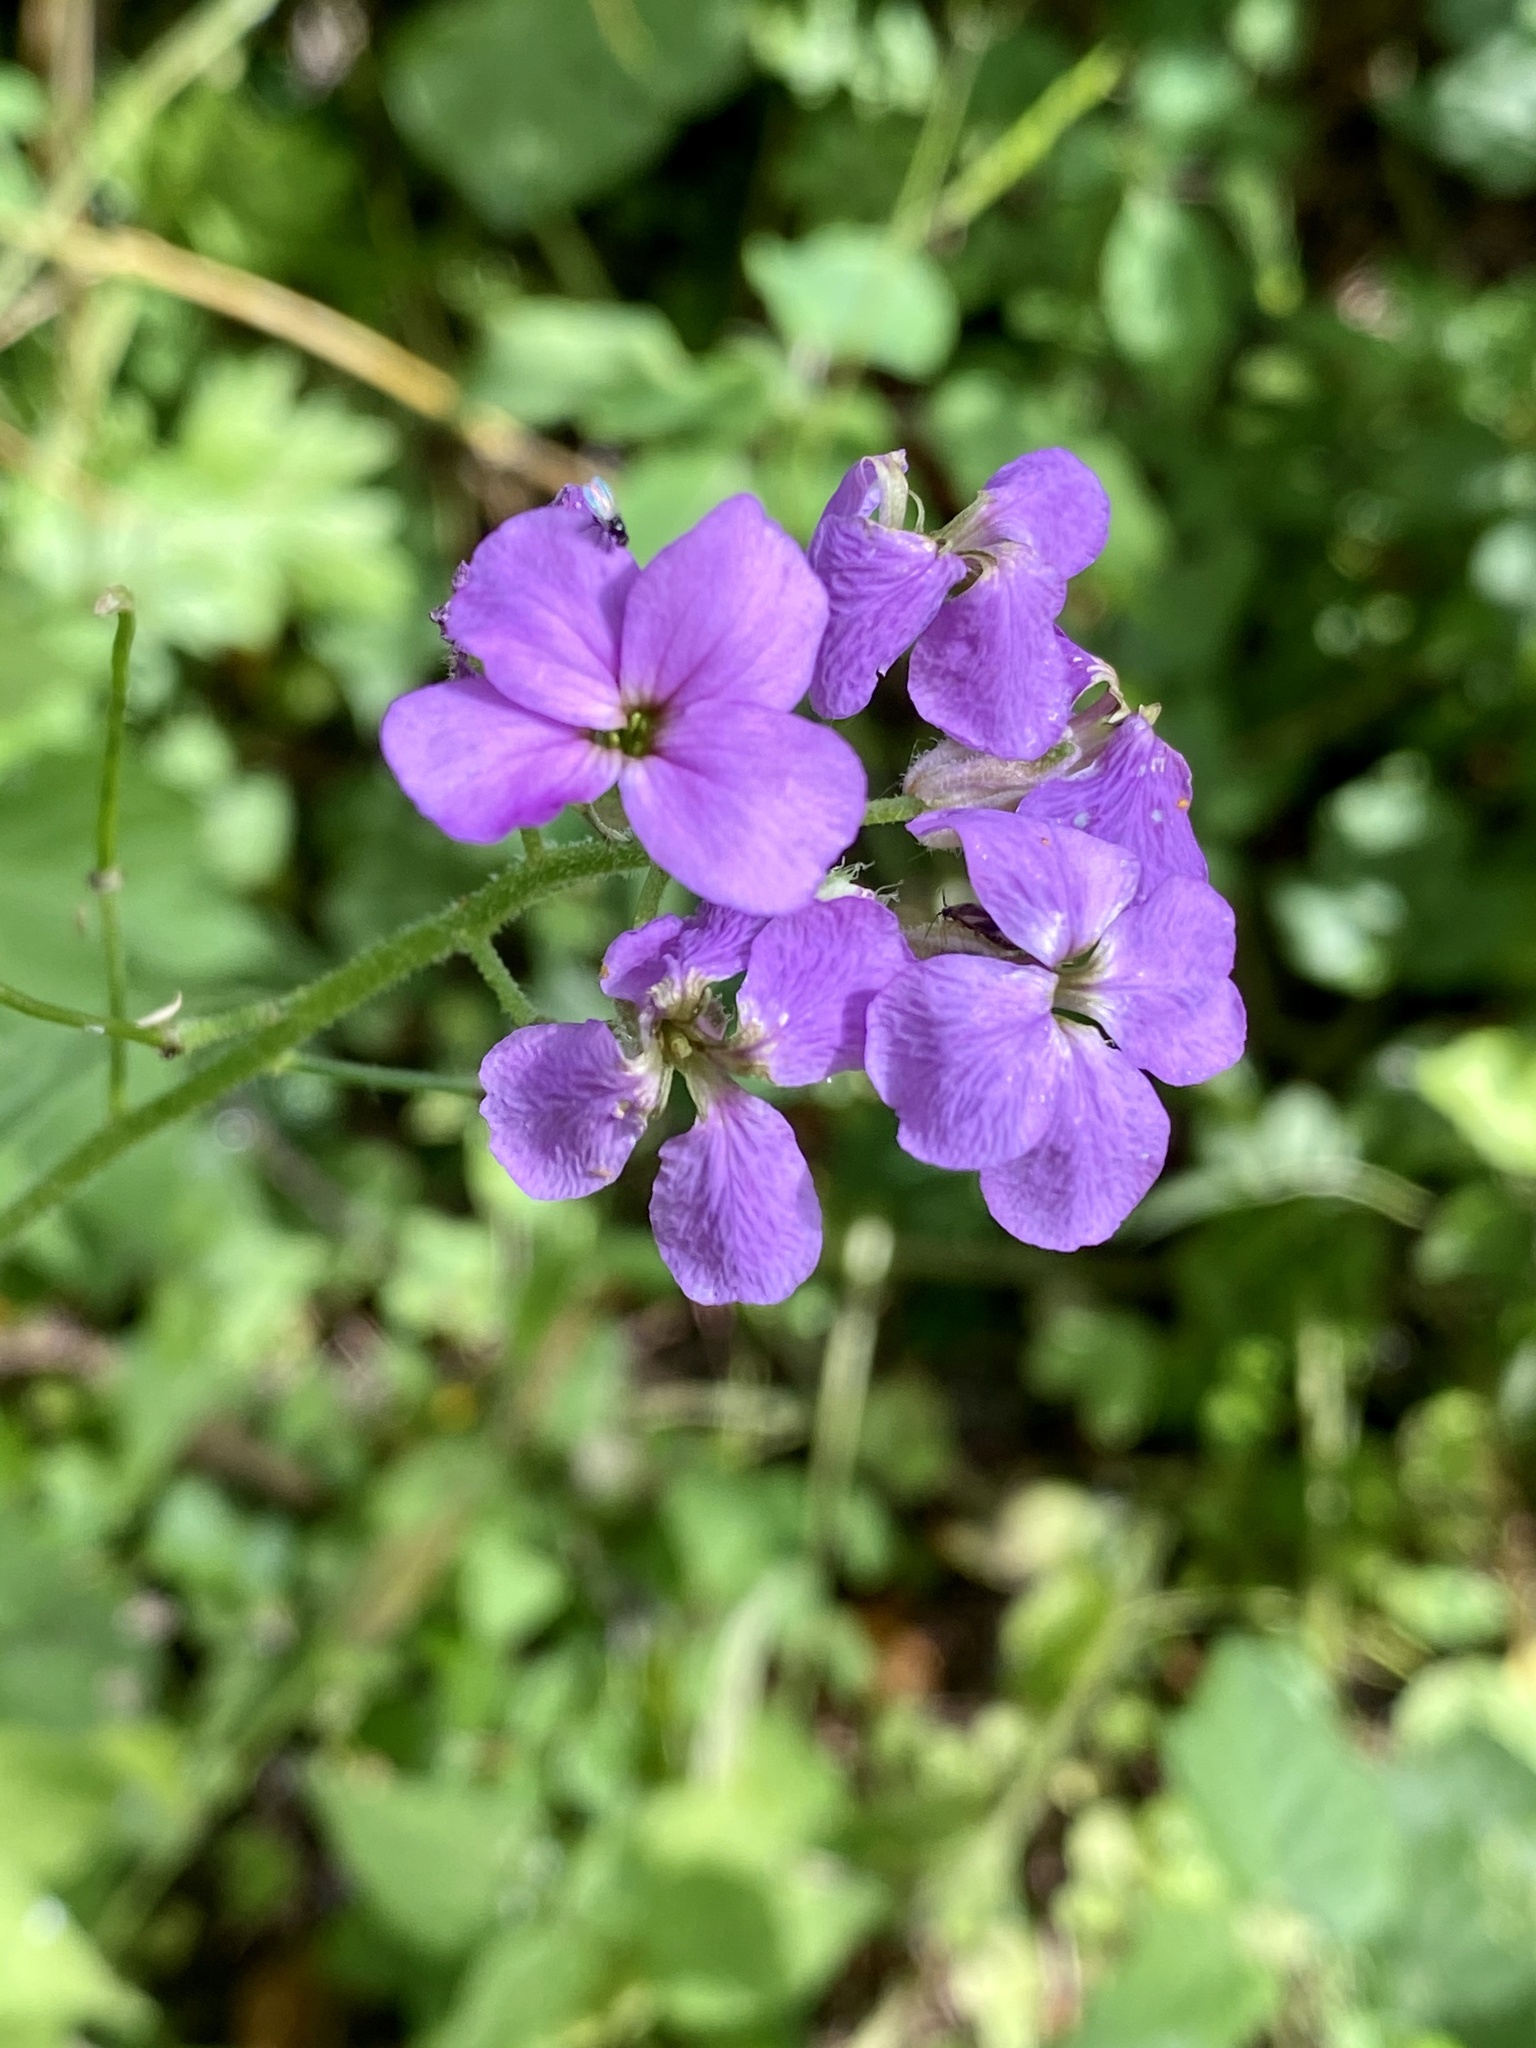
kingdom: Plantae
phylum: Tracheophyta
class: Magnoliopsida
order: Brassicales
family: Brassicaceae
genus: Hesperis
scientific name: Hesperis matronalis
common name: Dame's-violet
